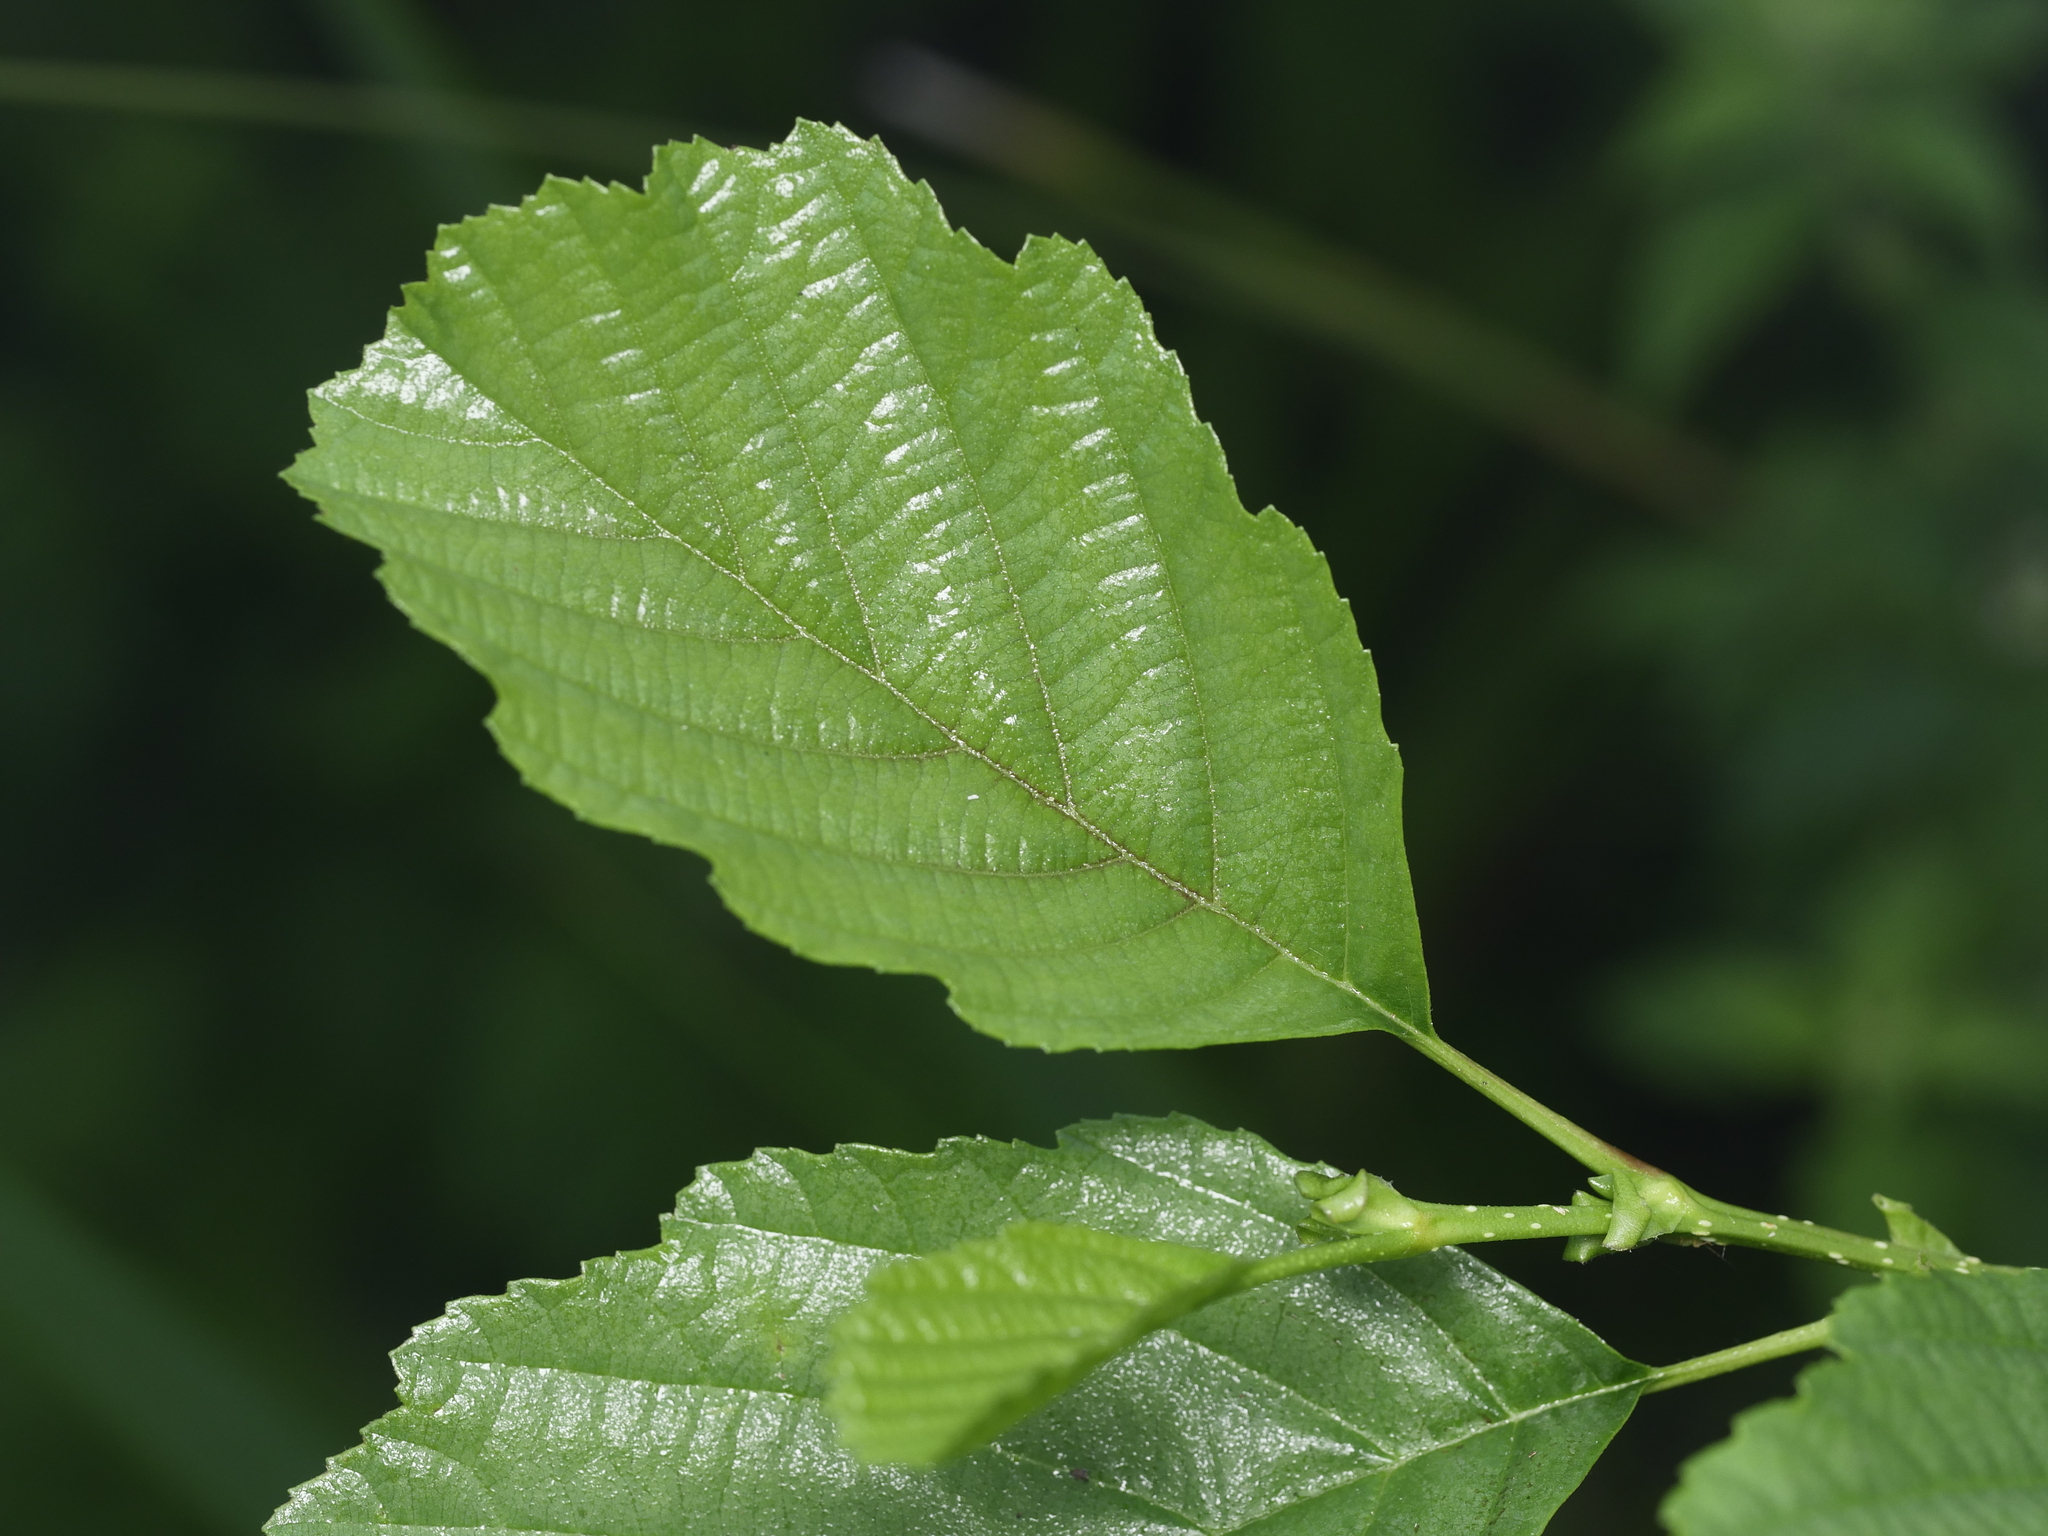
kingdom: Plantae
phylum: Tracheophyta
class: Magnoliopsida
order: Fagales
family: Betulaceae
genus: Alnus
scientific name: Alnus glutinosa
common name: Black alder
